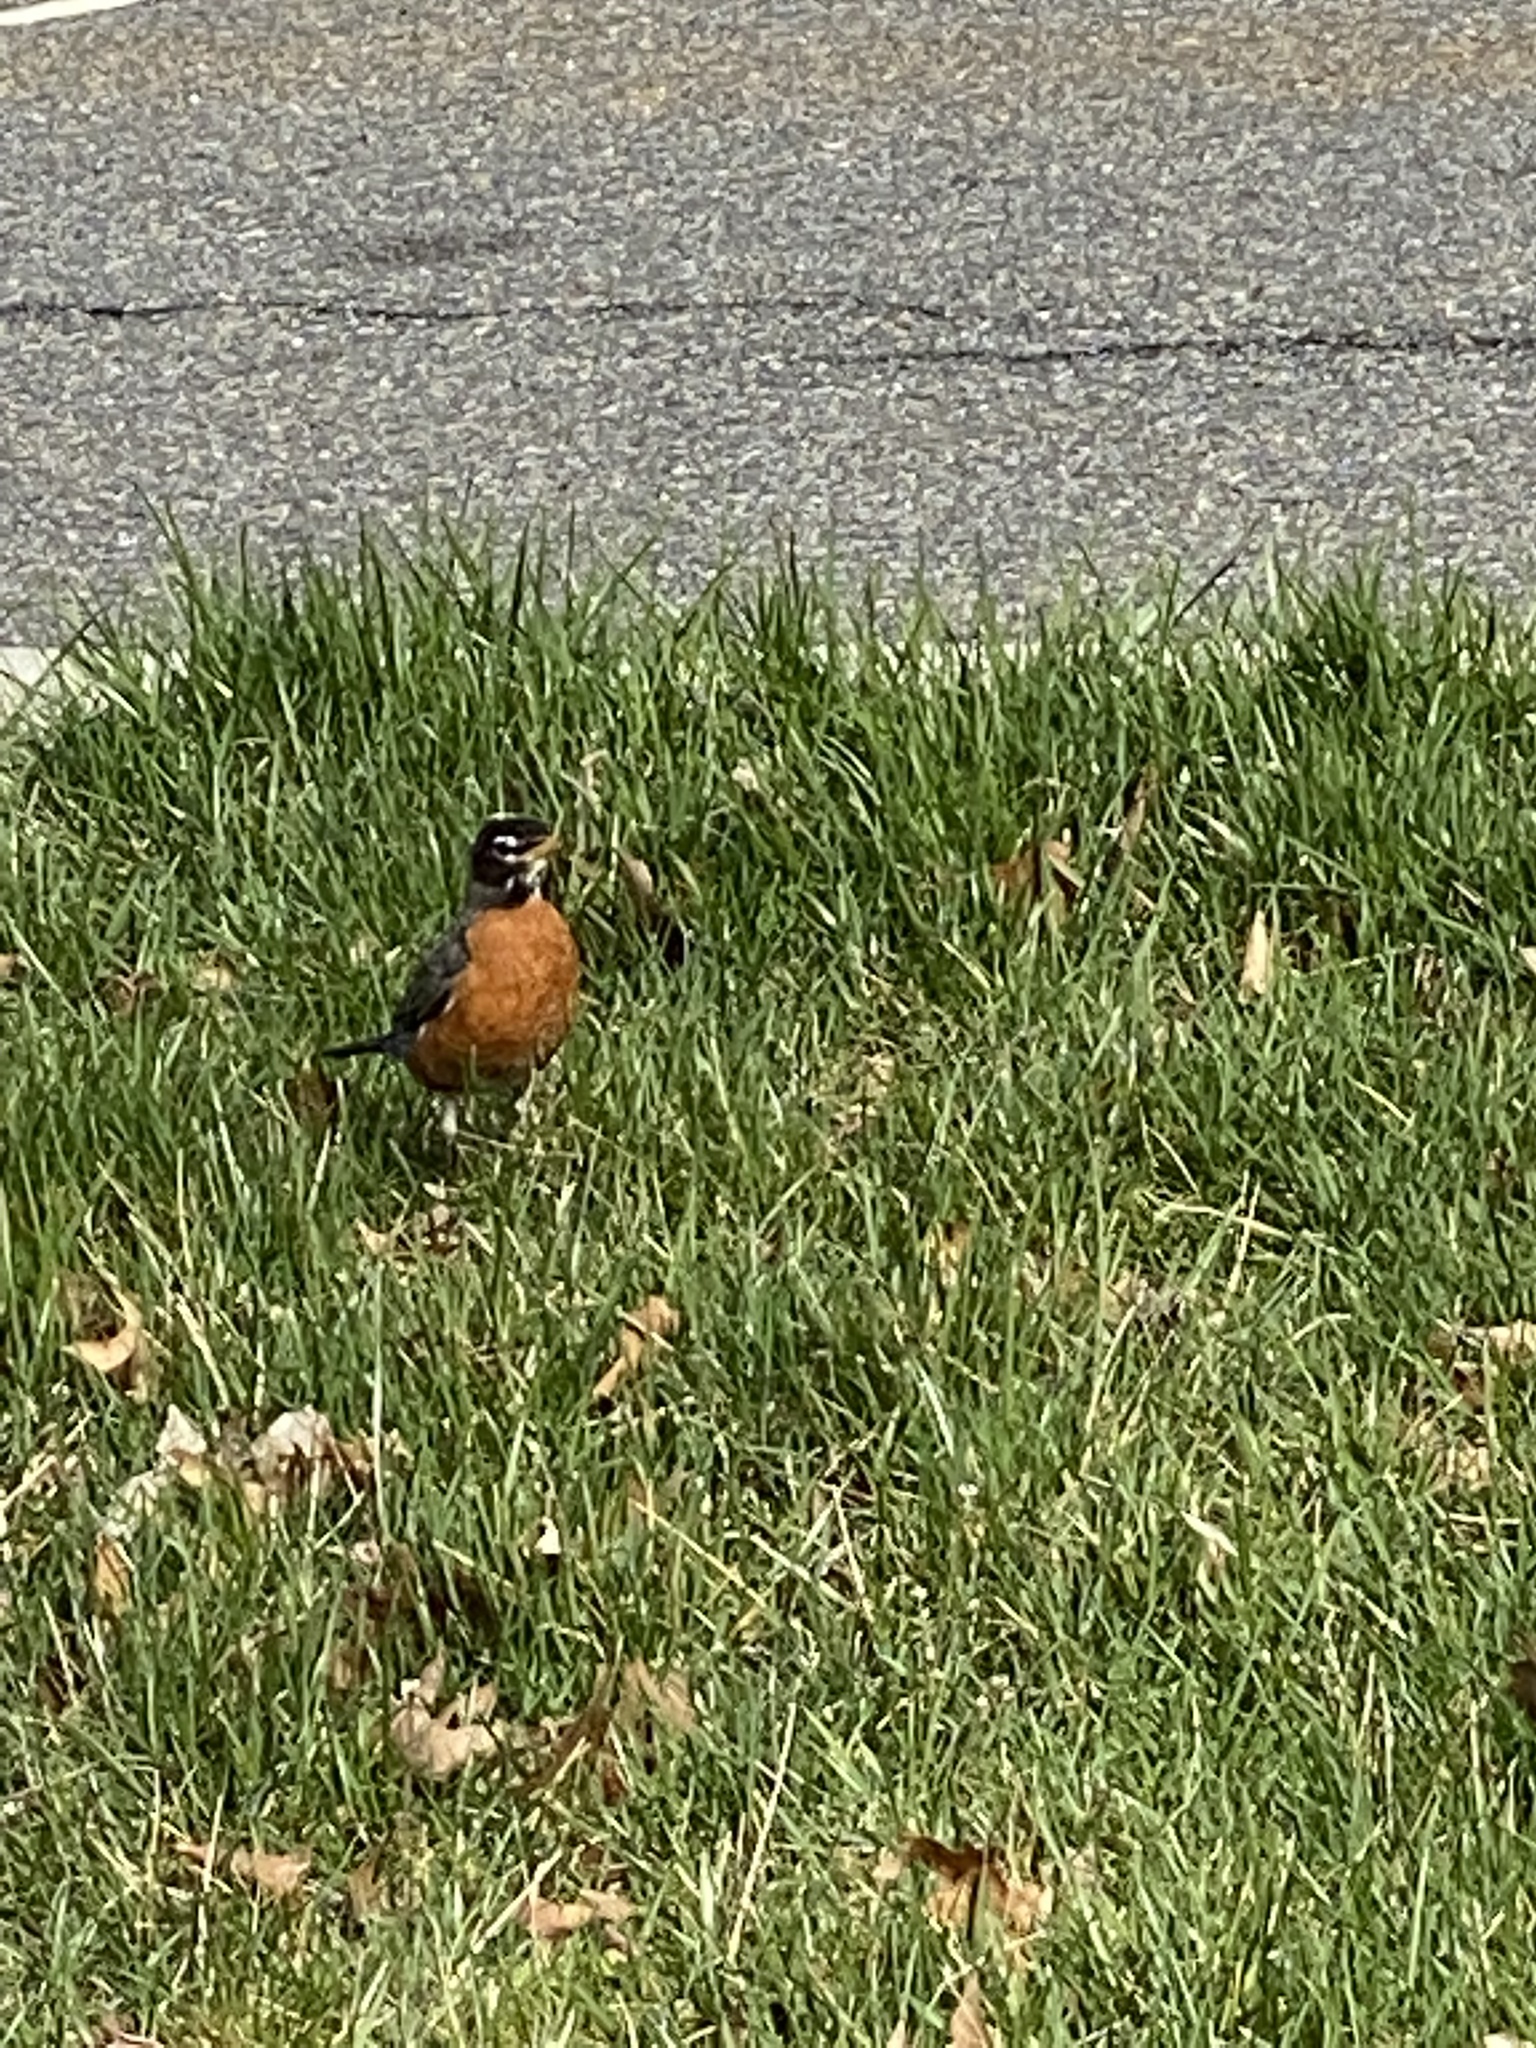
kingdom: Animalia
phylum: Chordata
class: Aves
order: Passeriformes
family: Turdidae
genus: Turdus
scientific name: Turdus migratorius
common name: American robin
